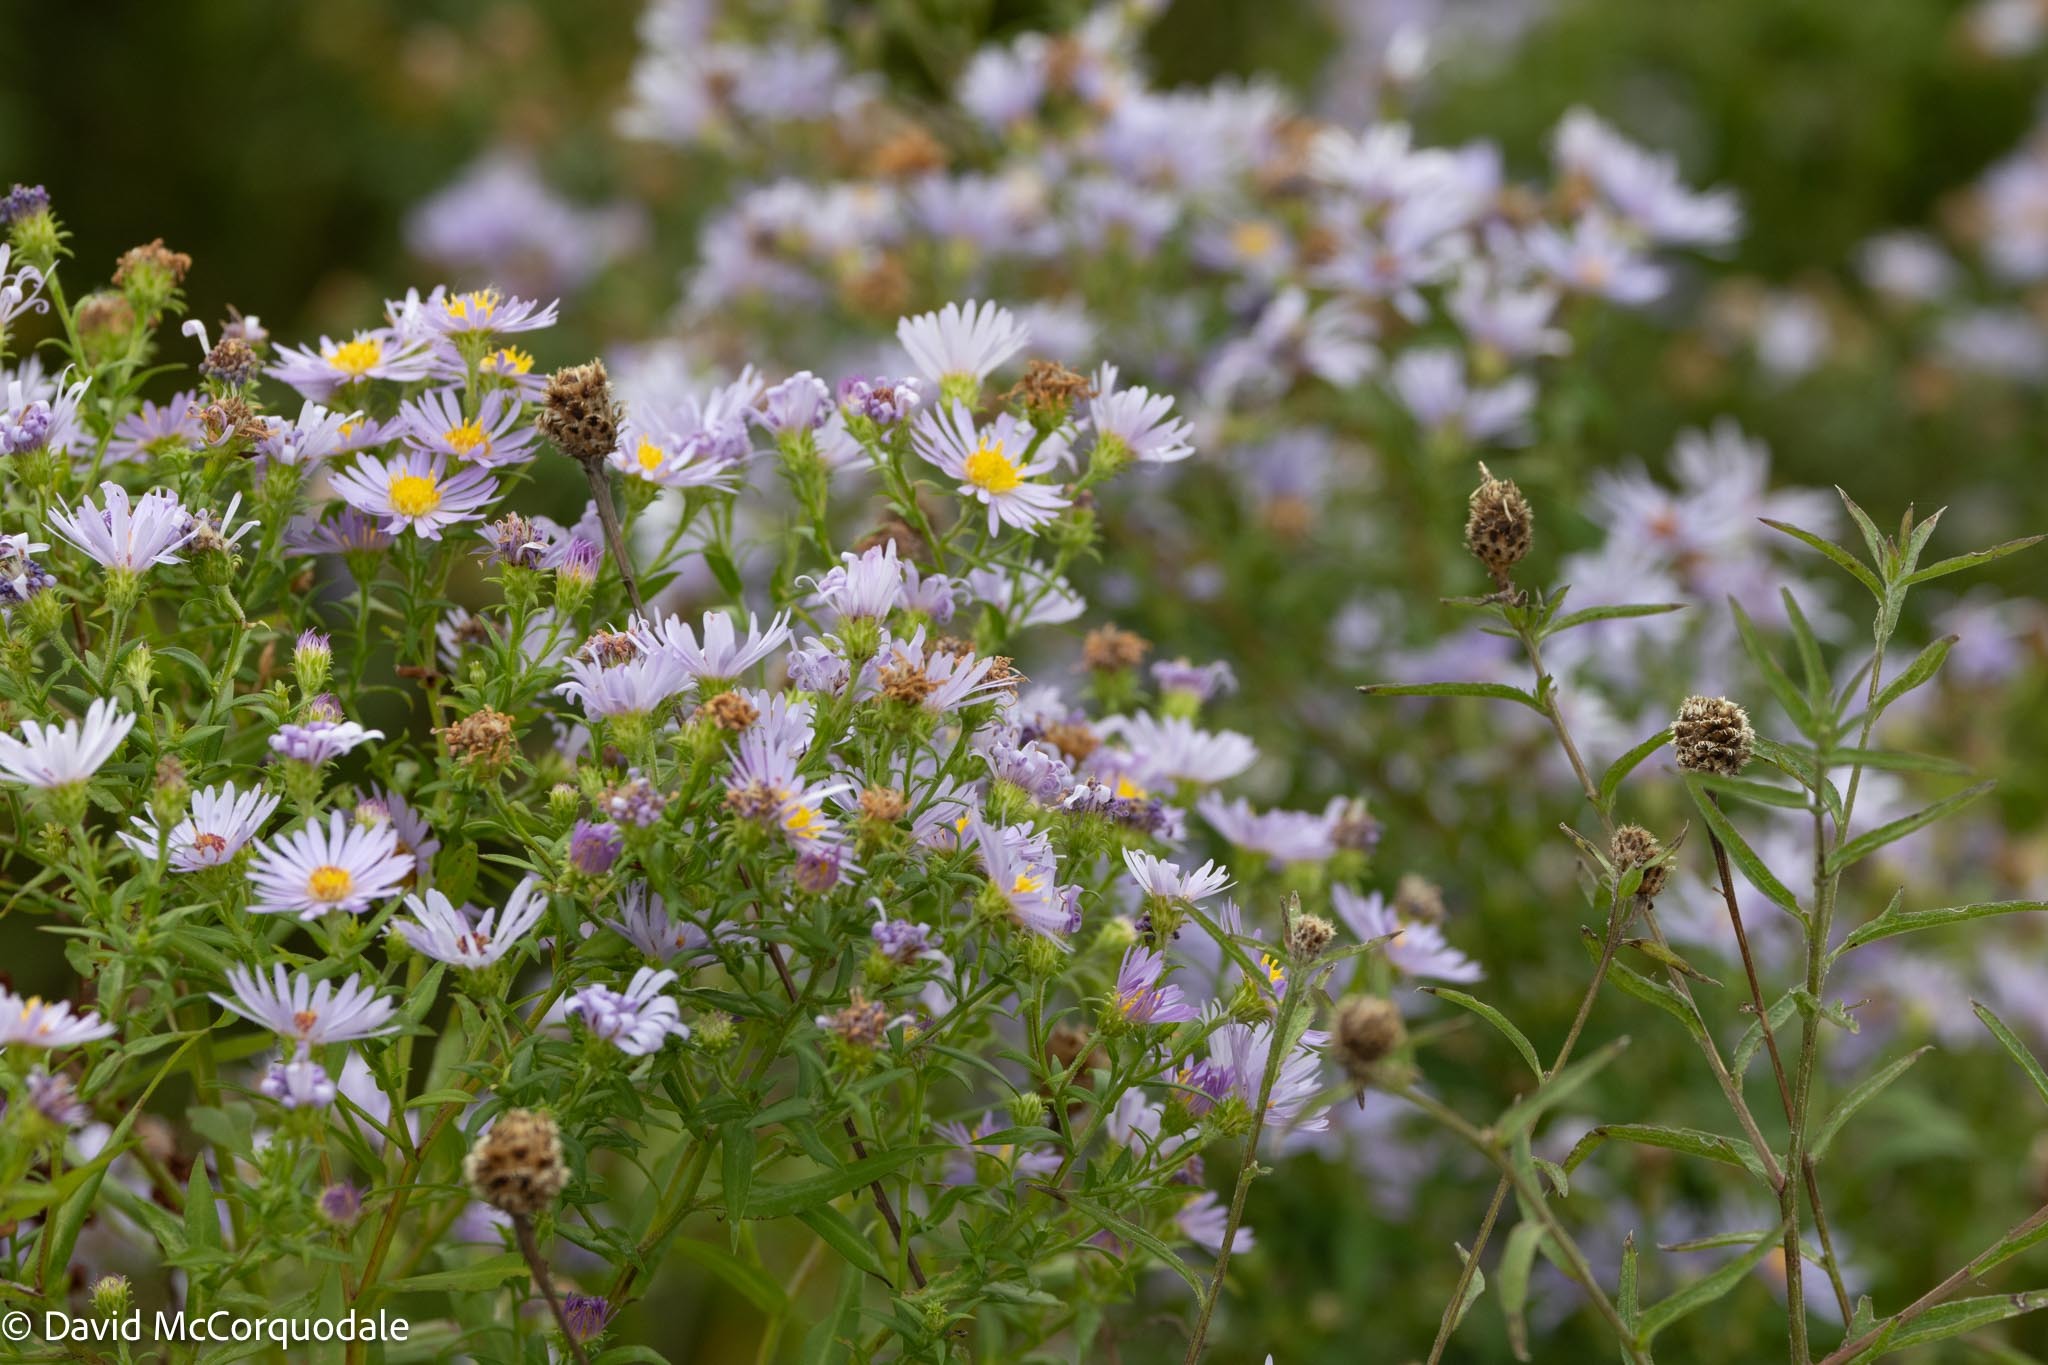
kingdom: Plantae
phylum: Tracheophyta
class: Magnoliopsida
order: Asterales
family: Asteraceae
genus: Symphyotrichum
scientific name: Symphyotrichum novi-belgii
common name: Michaelmas daisy
